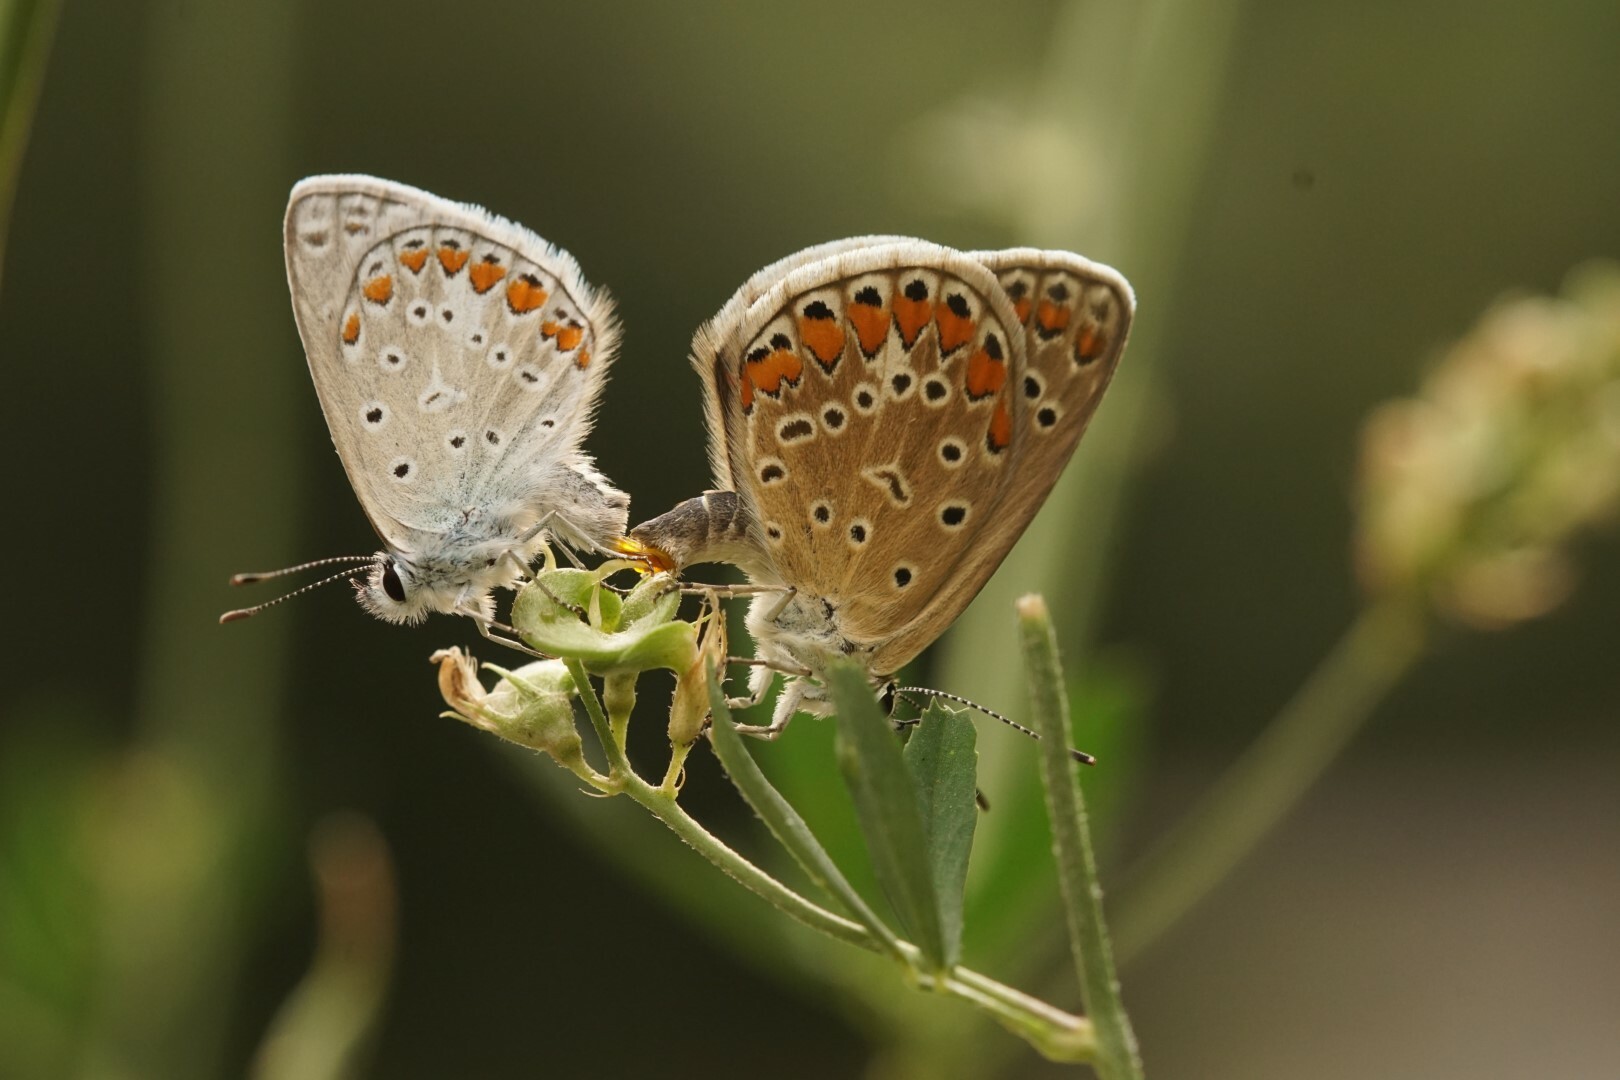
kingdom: Animalia
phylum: Arthropoda
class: Insecta
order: Lepidoptera
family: Lycaenidae
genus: Polyommatus
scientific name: Polyommatus icarus
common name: Common blue
